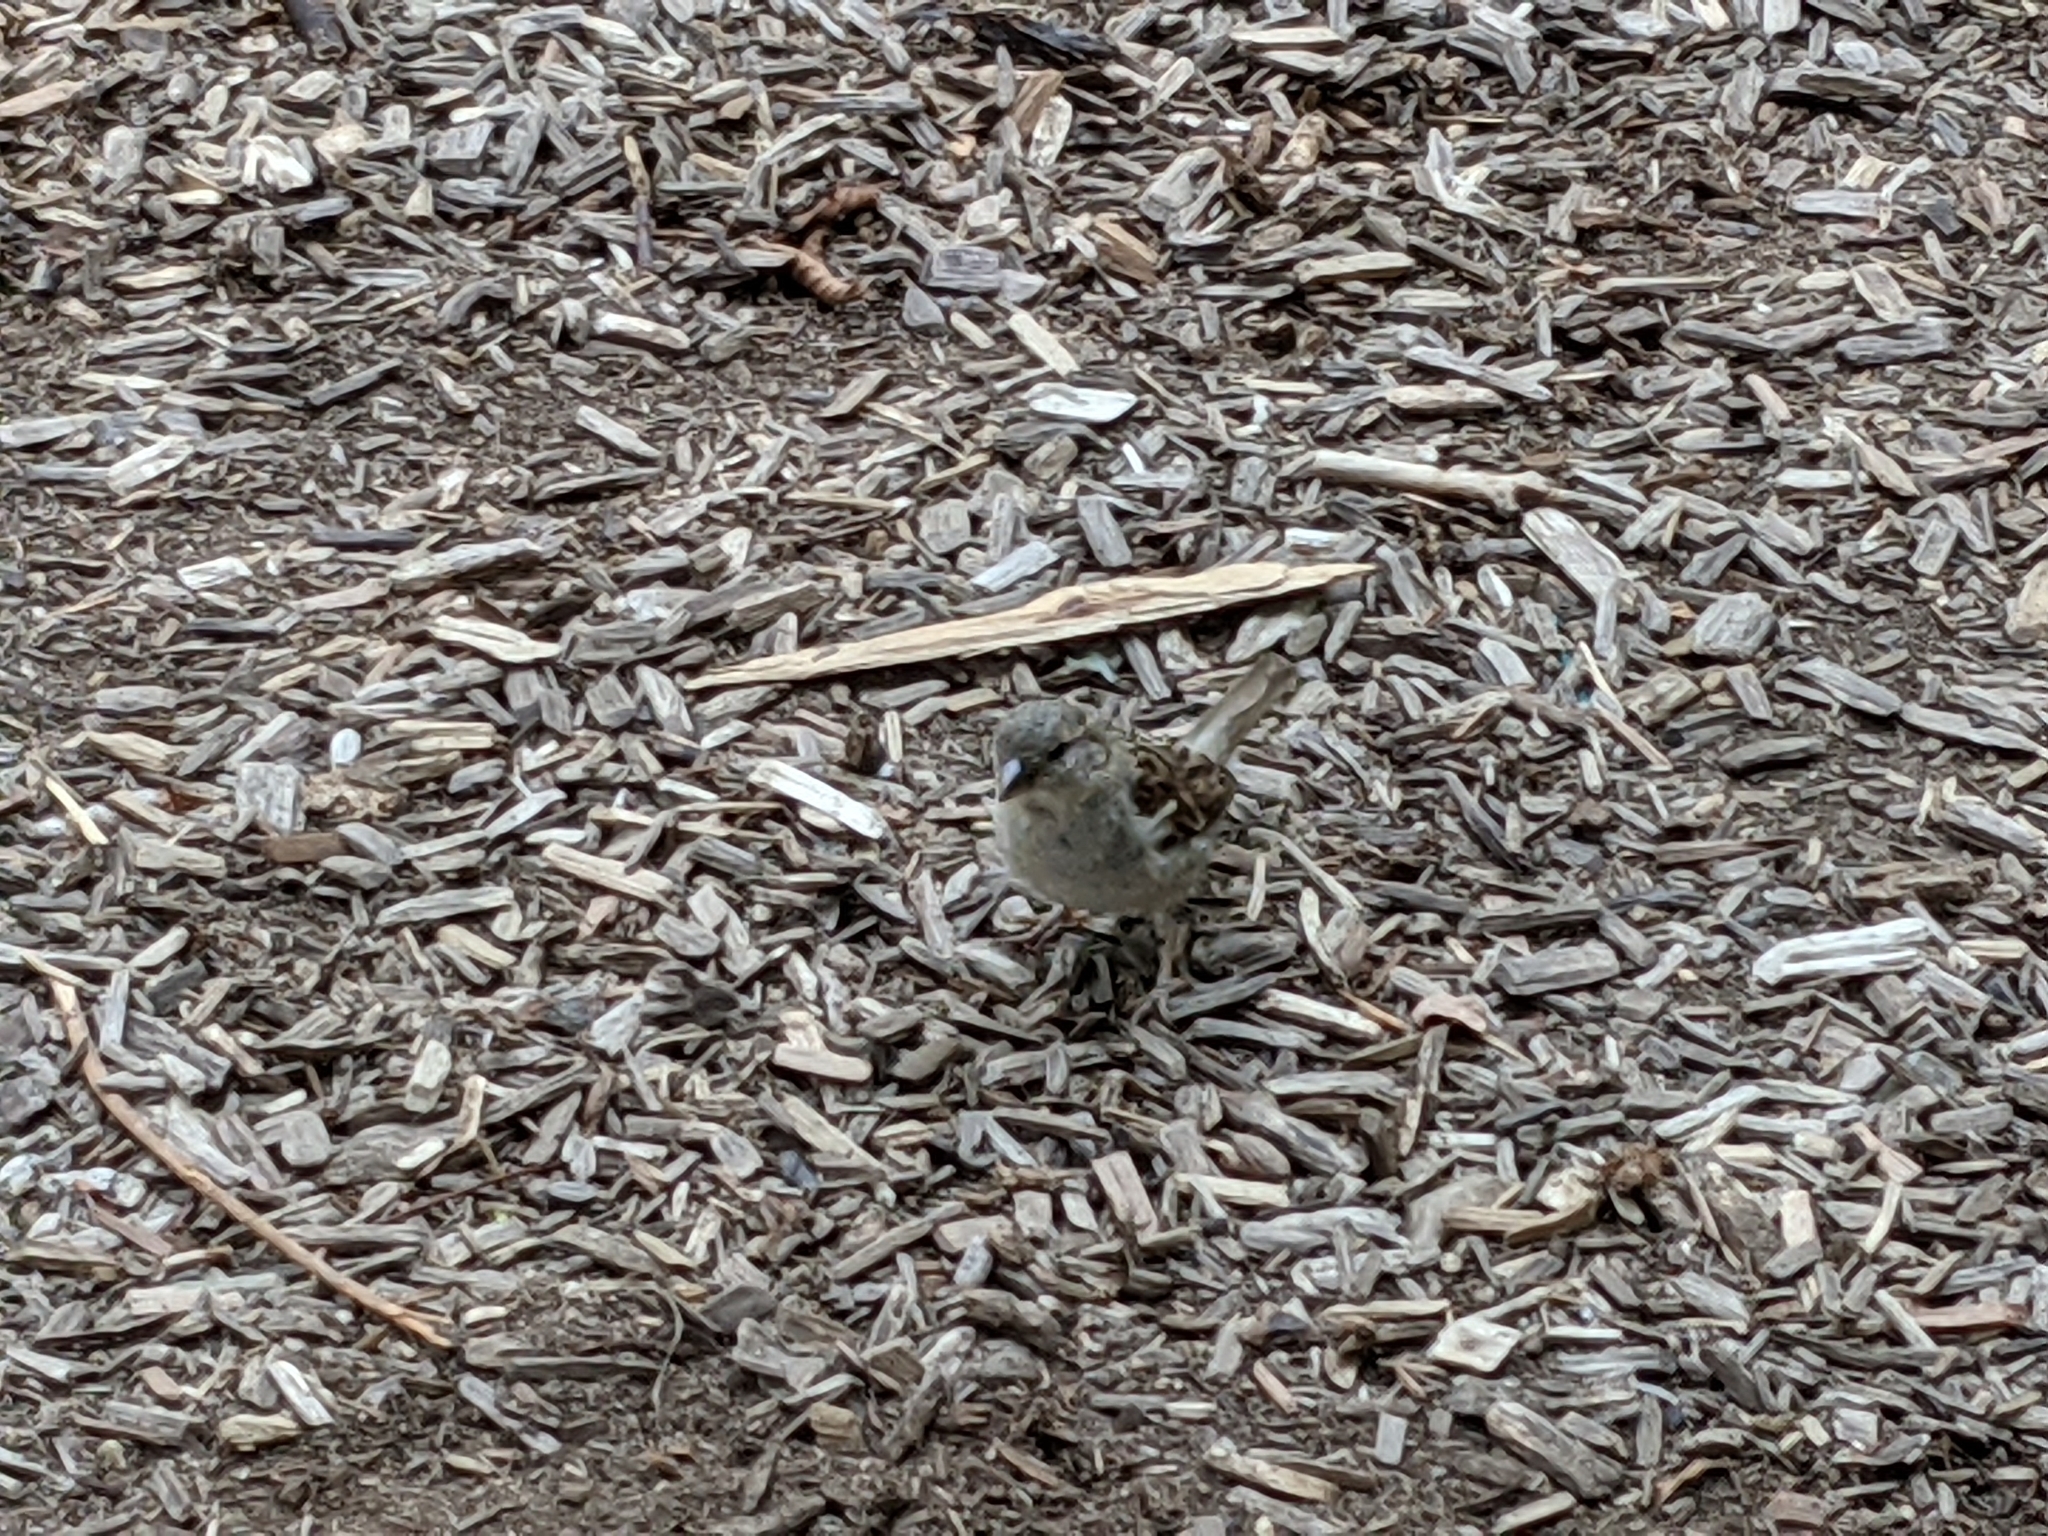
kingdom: Animalia
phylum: Chordata
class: Aves
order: Passeriformes
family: Passeridae
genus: Passer
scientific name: Passer domesticus
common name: House sparrow
